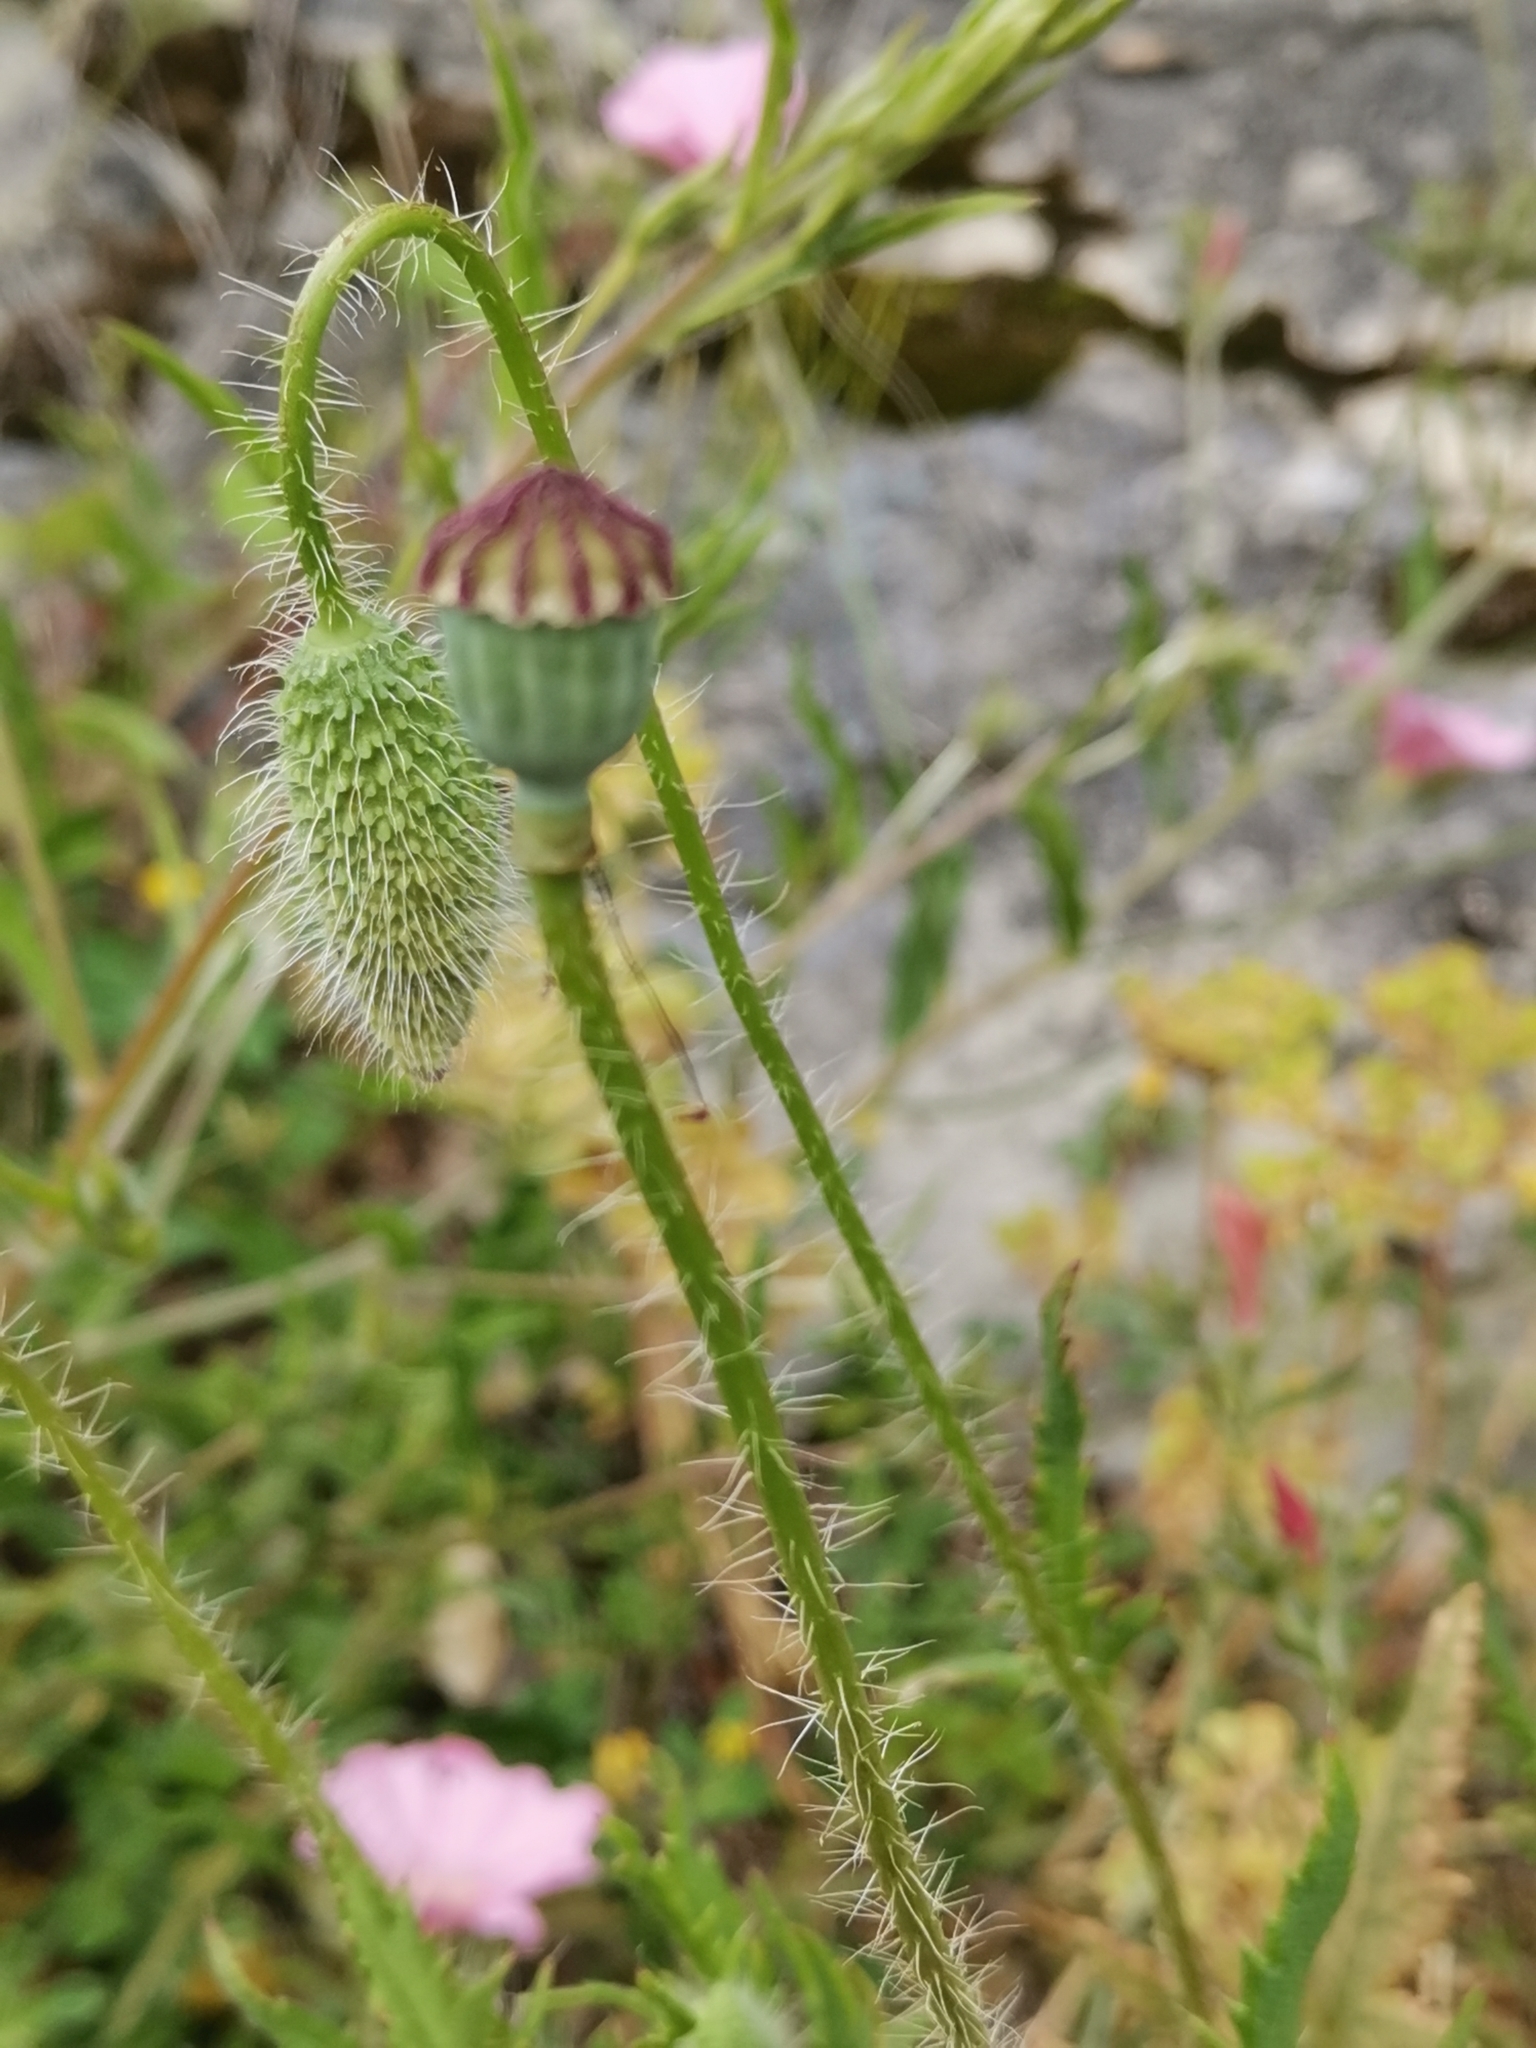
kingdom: Plantae
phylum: Tracheophyta
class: Magnoliopsida
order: Ranunculales
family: Papaveraceae
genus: Papaver
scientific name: Papaver rhoeas
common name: Corn poppy
